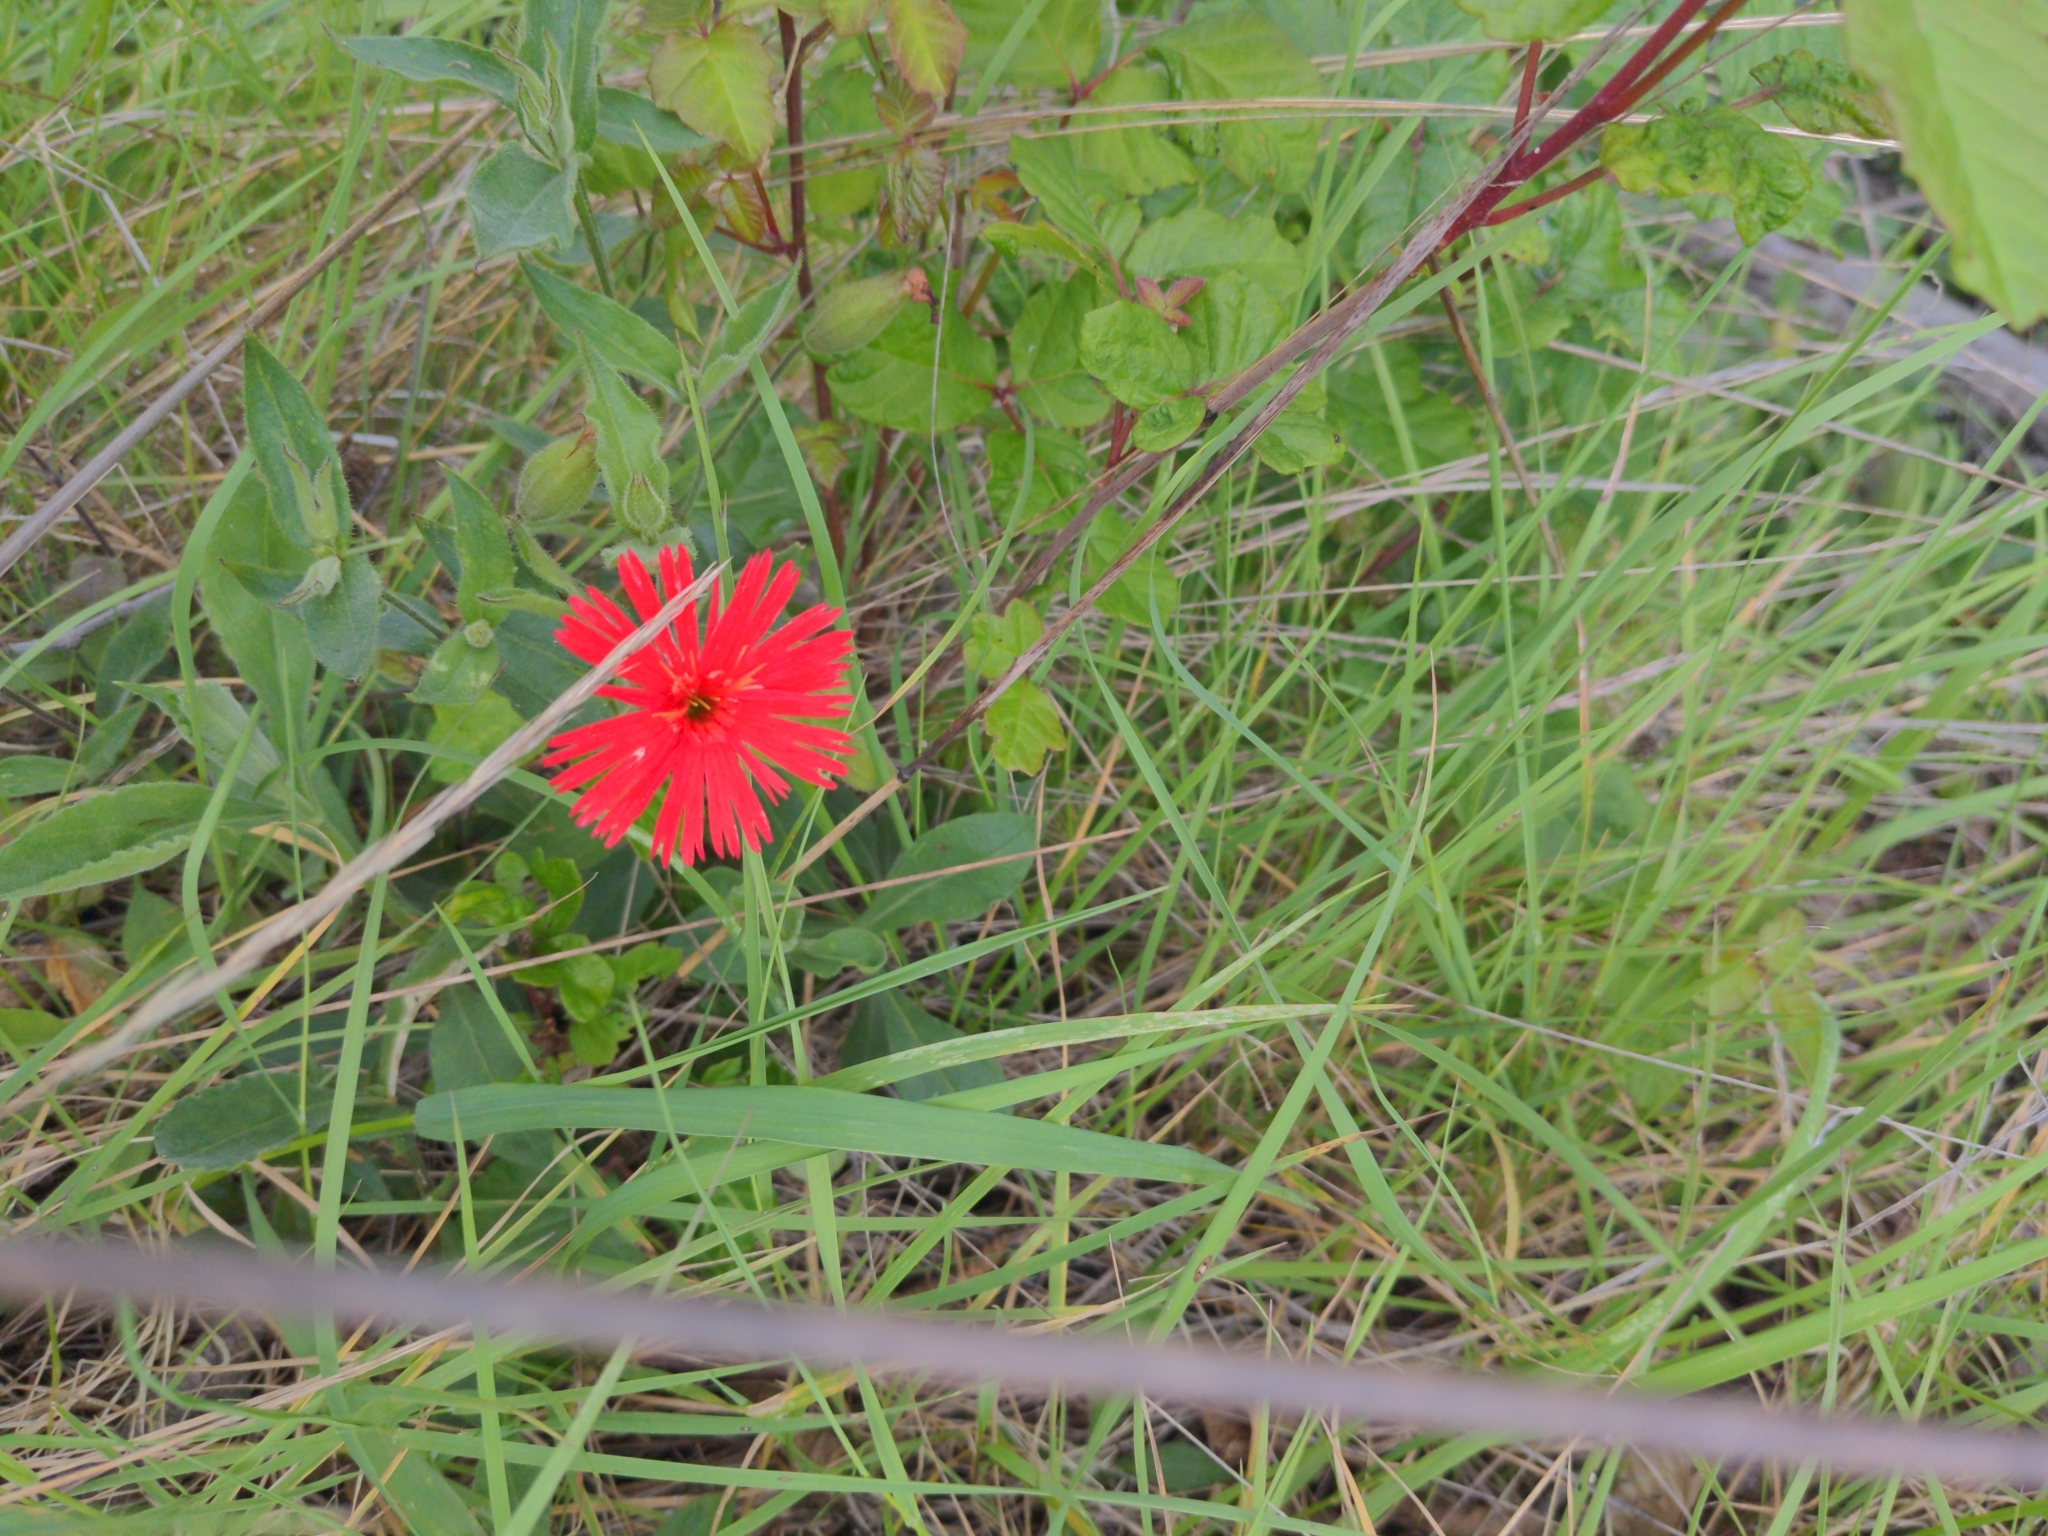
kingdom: Plantae
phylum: Tracheophyta
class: Magnoliopsida
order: Caryophyllales
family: Caryophyllaceae
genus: Silene
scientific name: Silene laciniata
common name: Indian-pink
